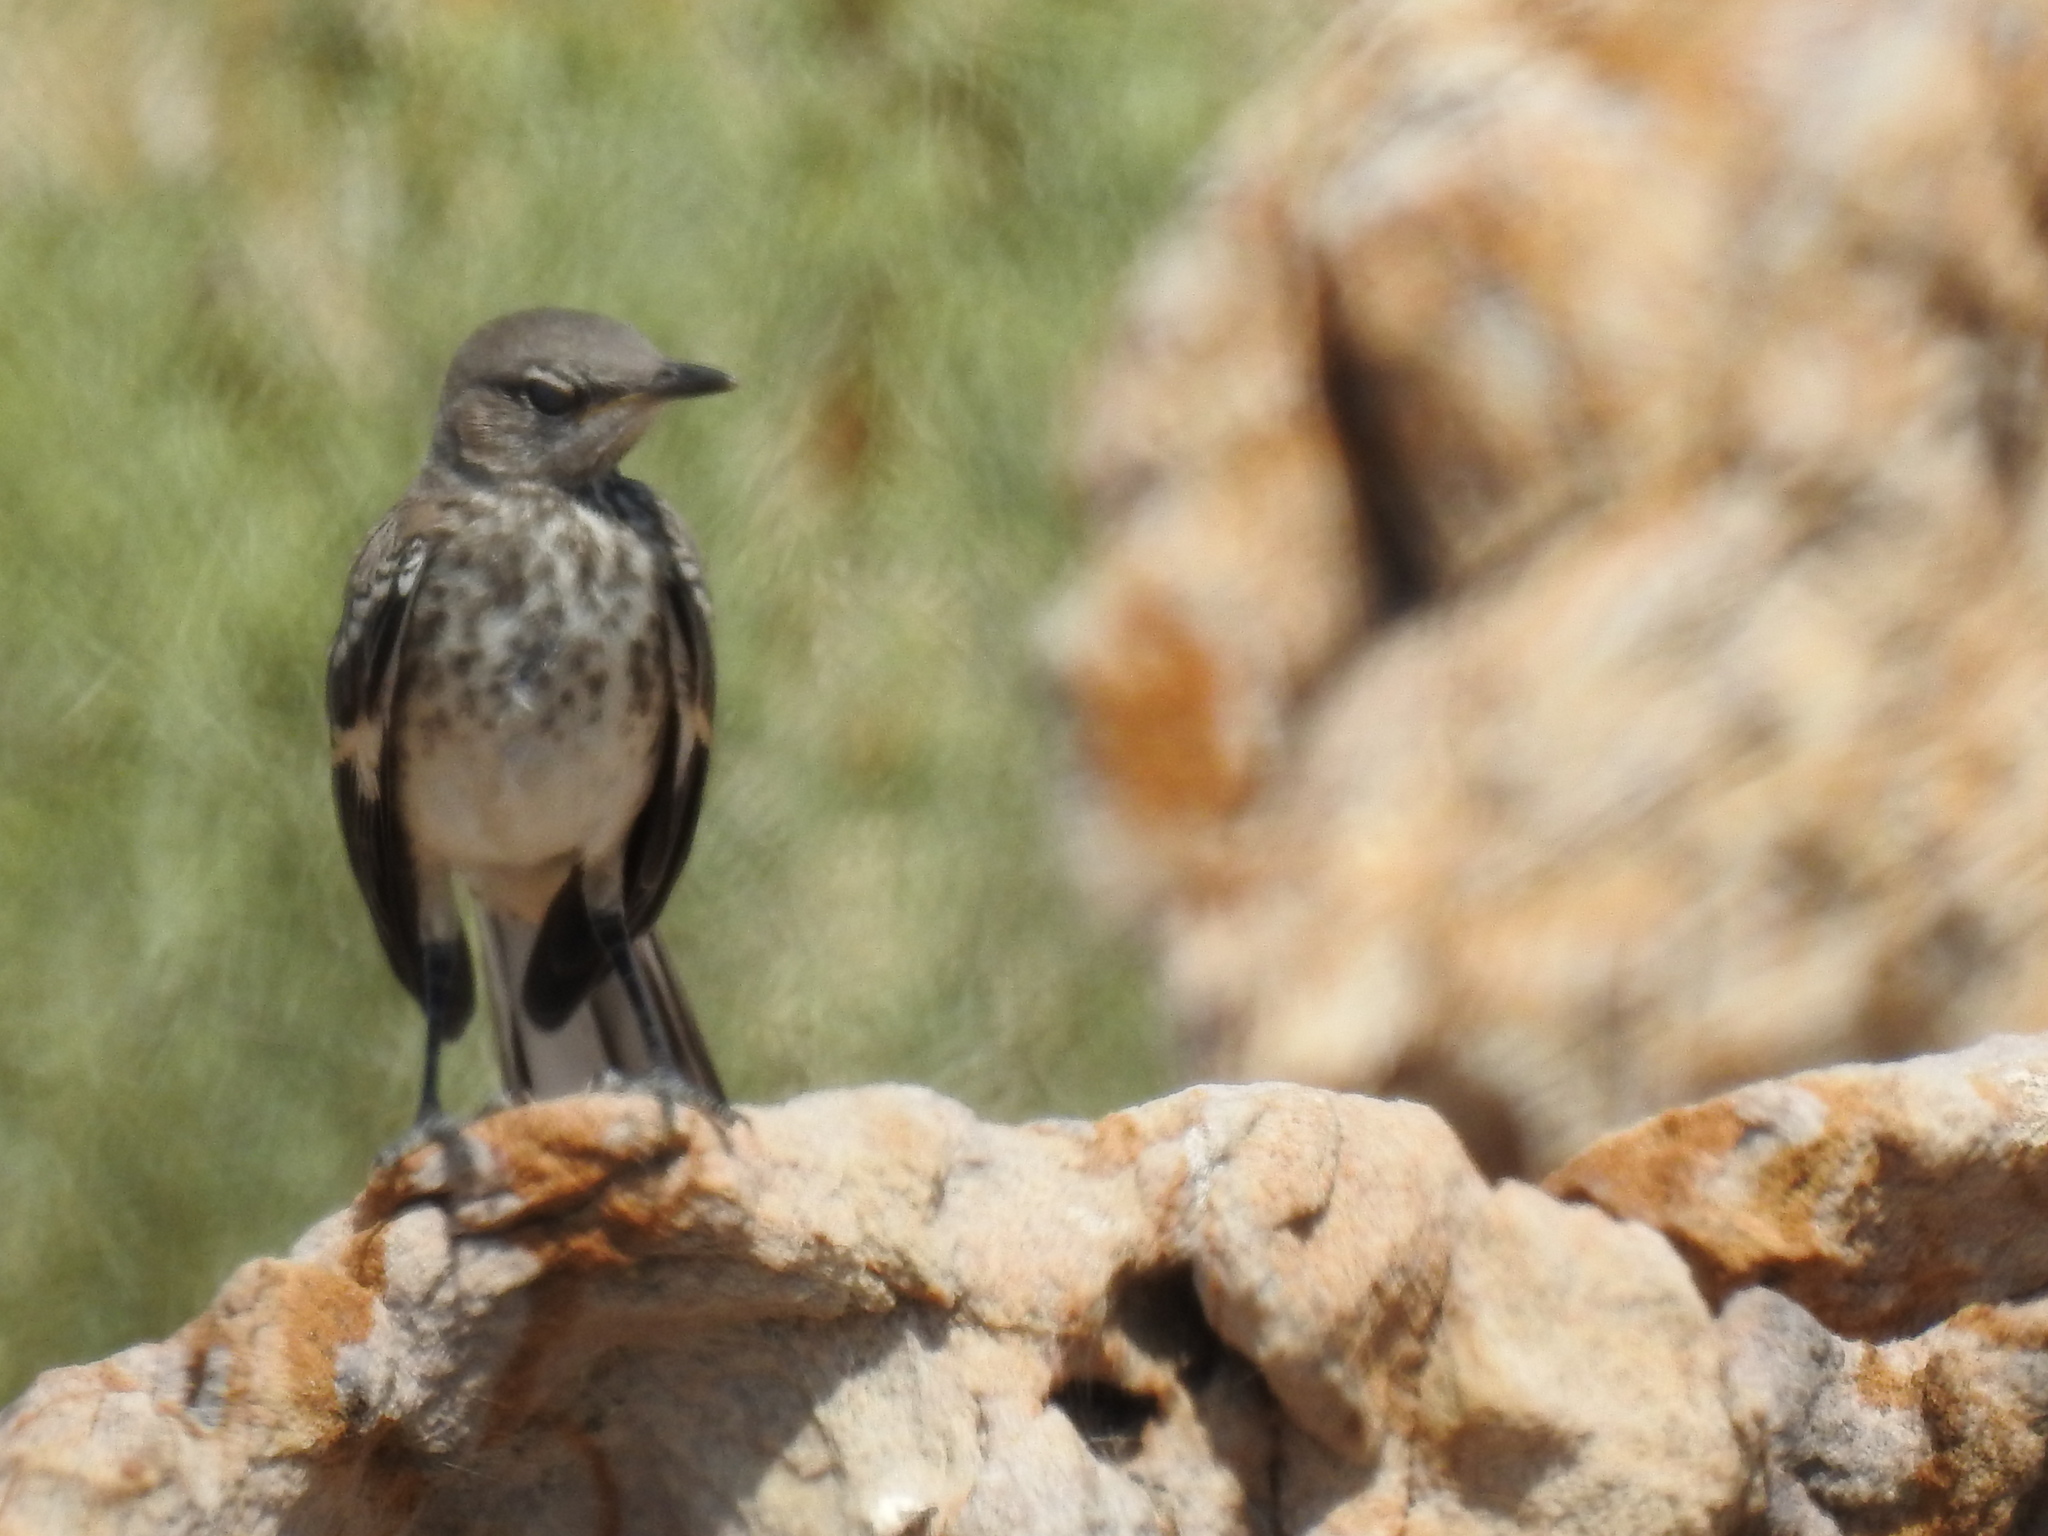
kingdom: Animalia
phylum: Chordata
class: Aves
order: Passeriformes
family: Mimidae
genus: Mimus
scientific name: Mimus polyglottos
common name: Northern mockingbird
